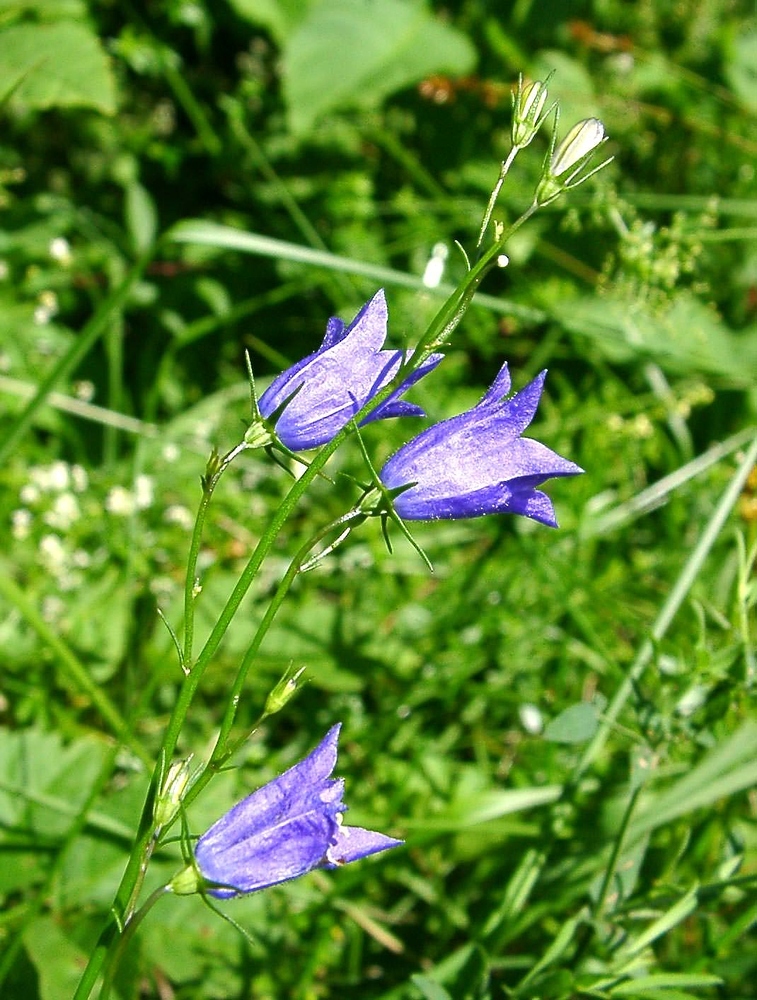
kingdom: Plantae
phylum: Tracheophyta
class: Magnoliopsida
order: Asterales
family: Campanulaceae
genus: Campanula
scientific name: Campanula rotundifolia
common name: Harebell
